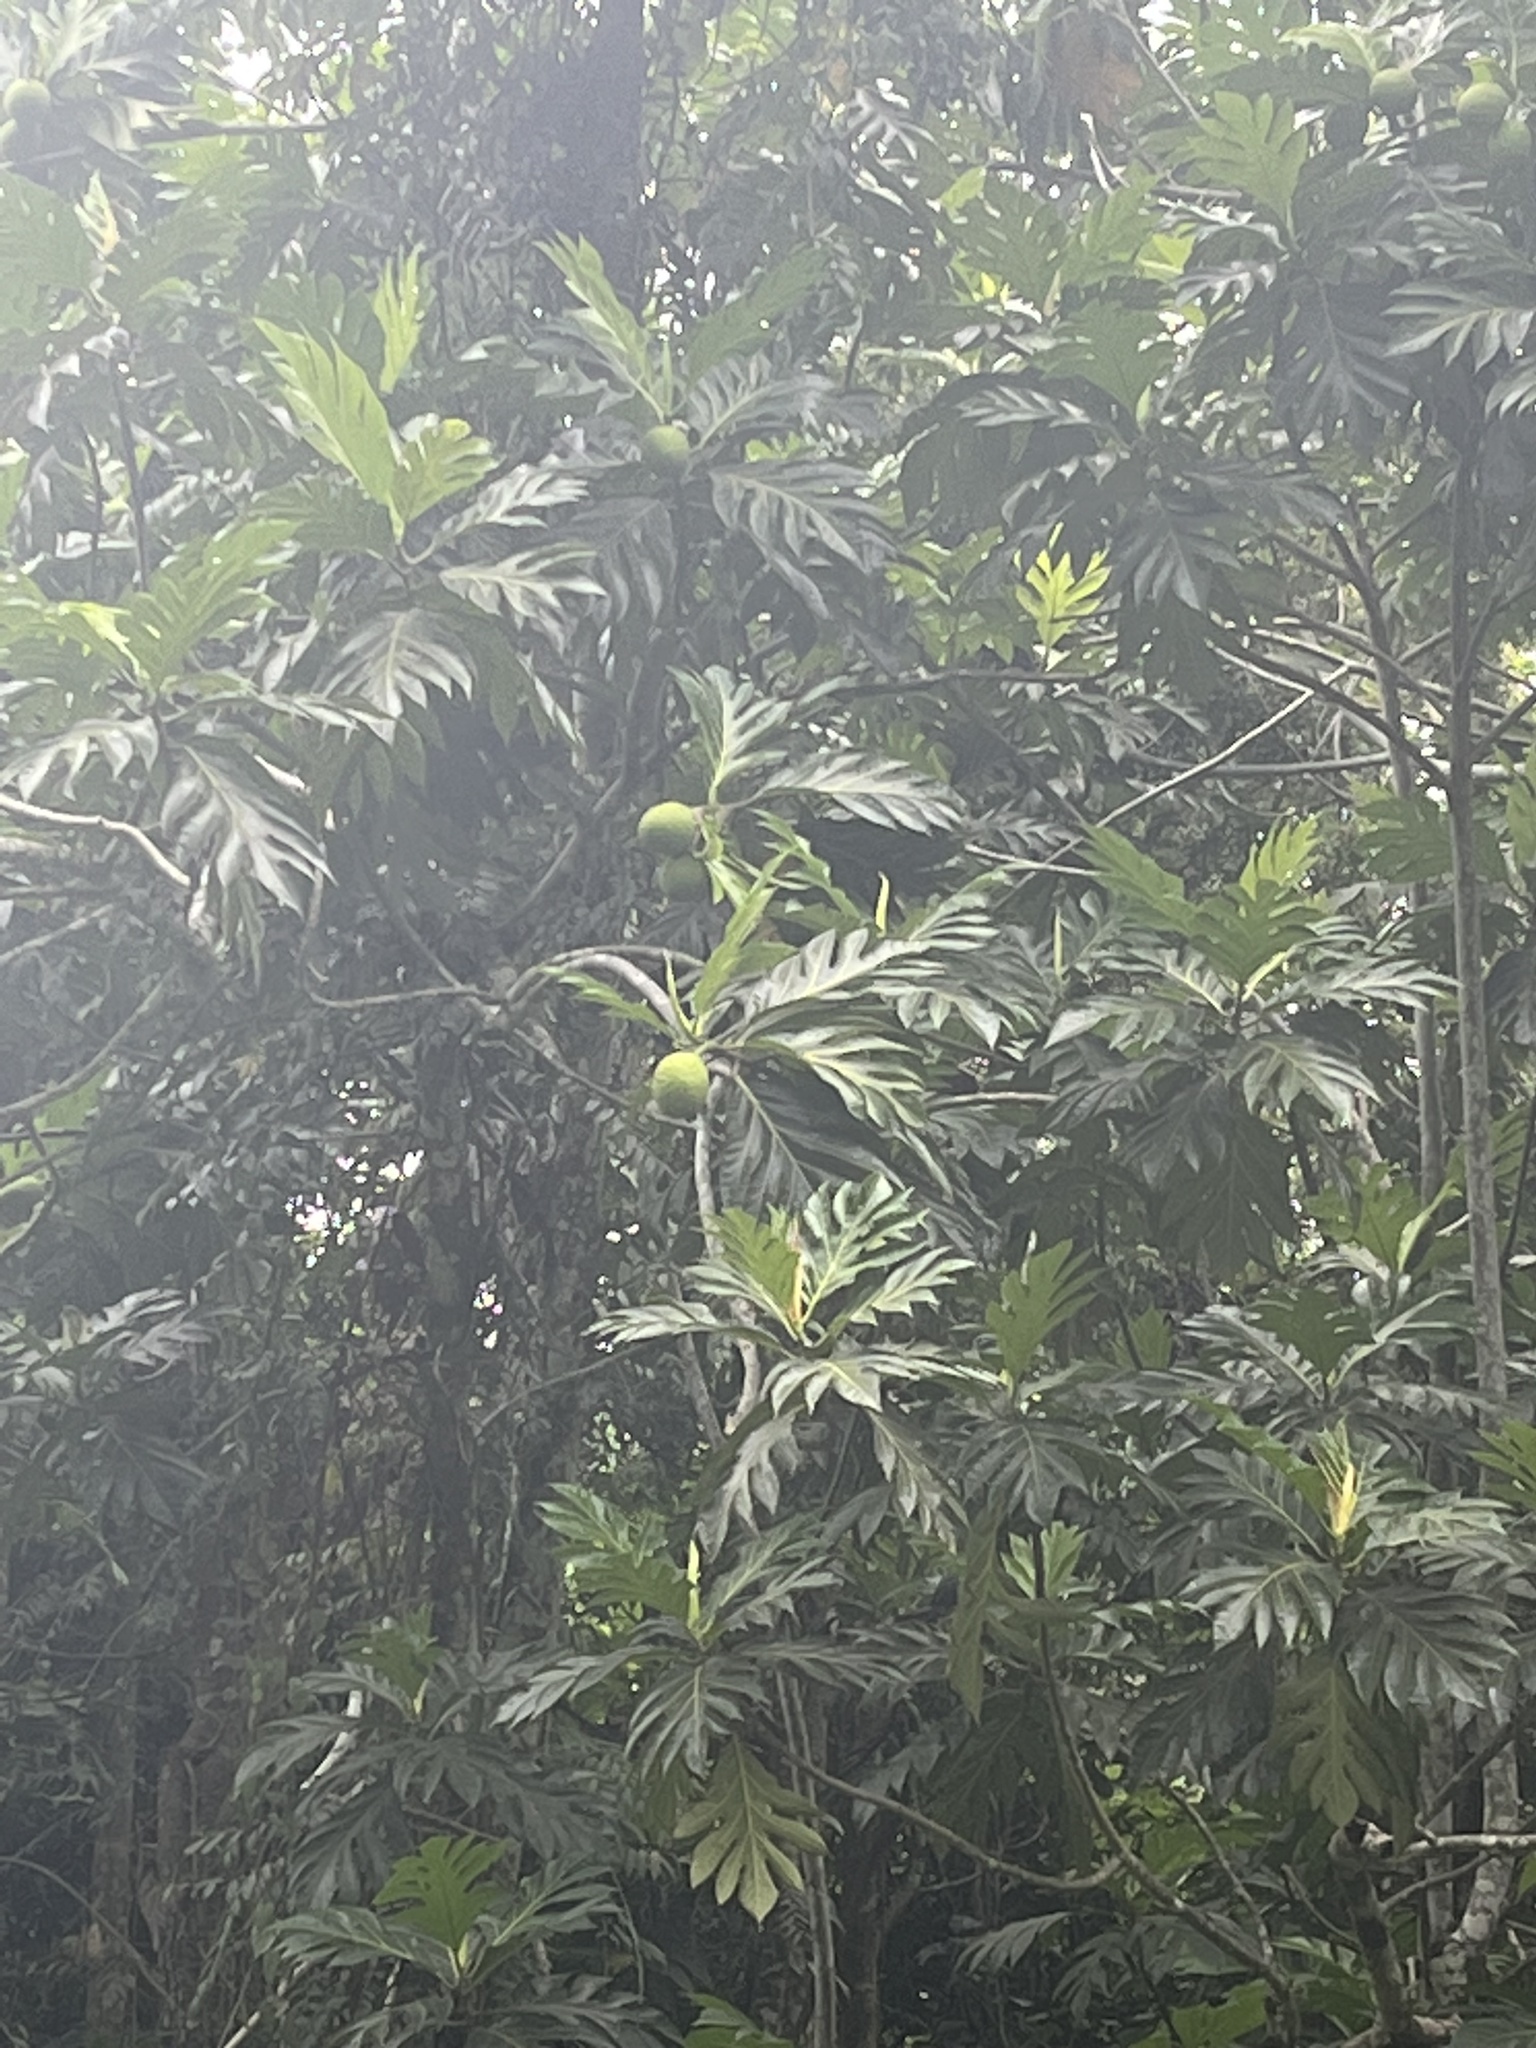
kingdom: Plantae
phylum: Tracheophyta
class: Magnoliopsida
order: Rosales
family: Moraceae
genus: Artocarpus
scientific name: Artocarpus altilis
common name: Breadfruit
